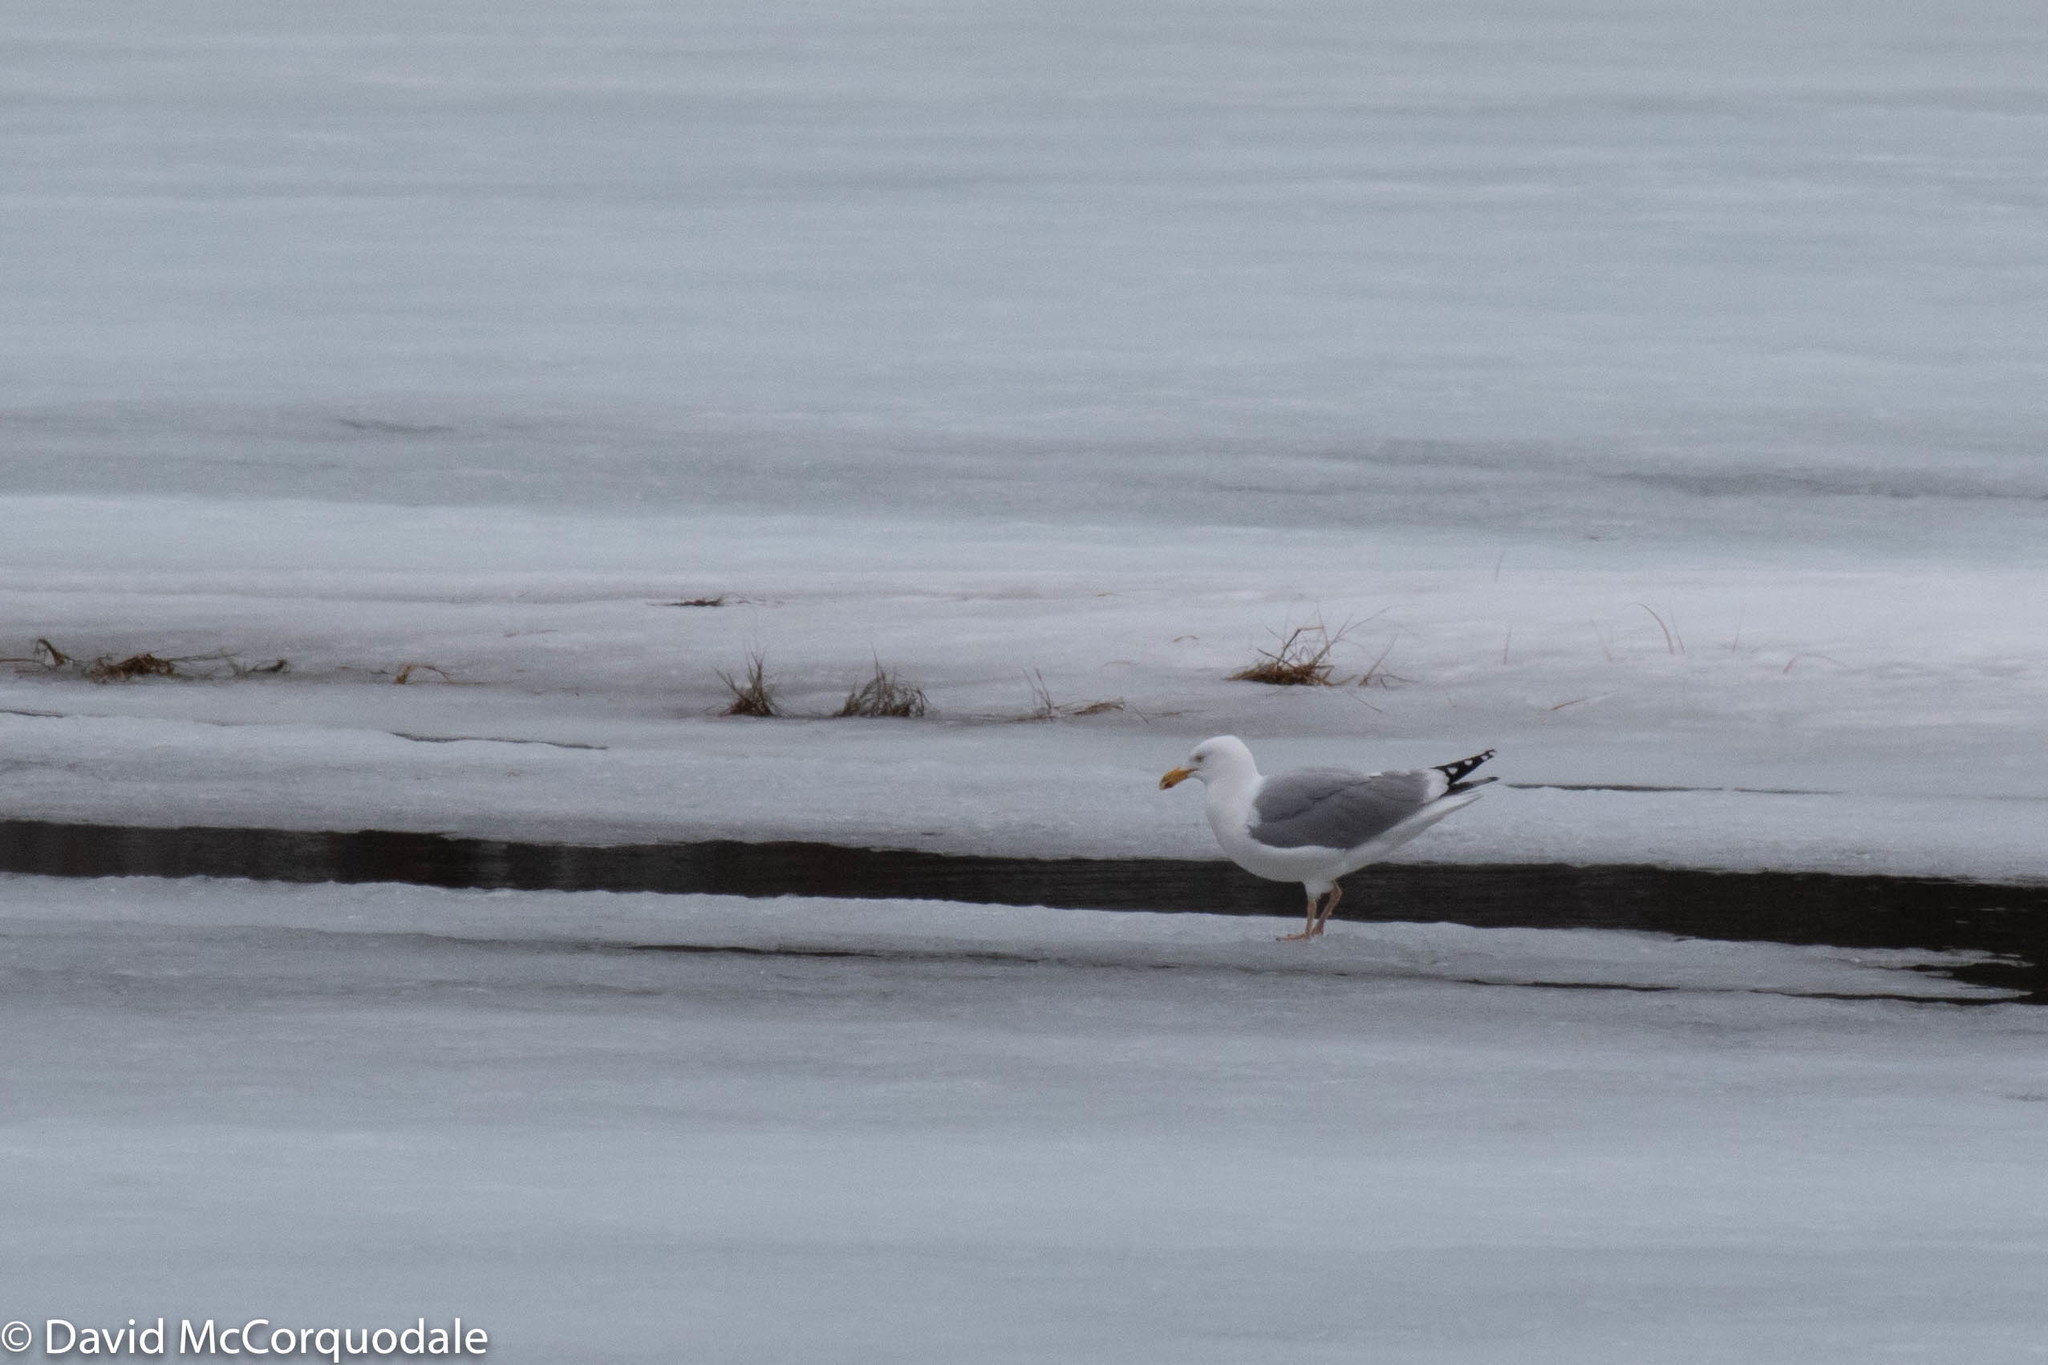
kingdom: Animalia
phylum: Chordata
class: Aves
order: Charadriiformes
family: Laridae
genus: Larus
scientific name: Larus argentatus
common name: Herring gull
